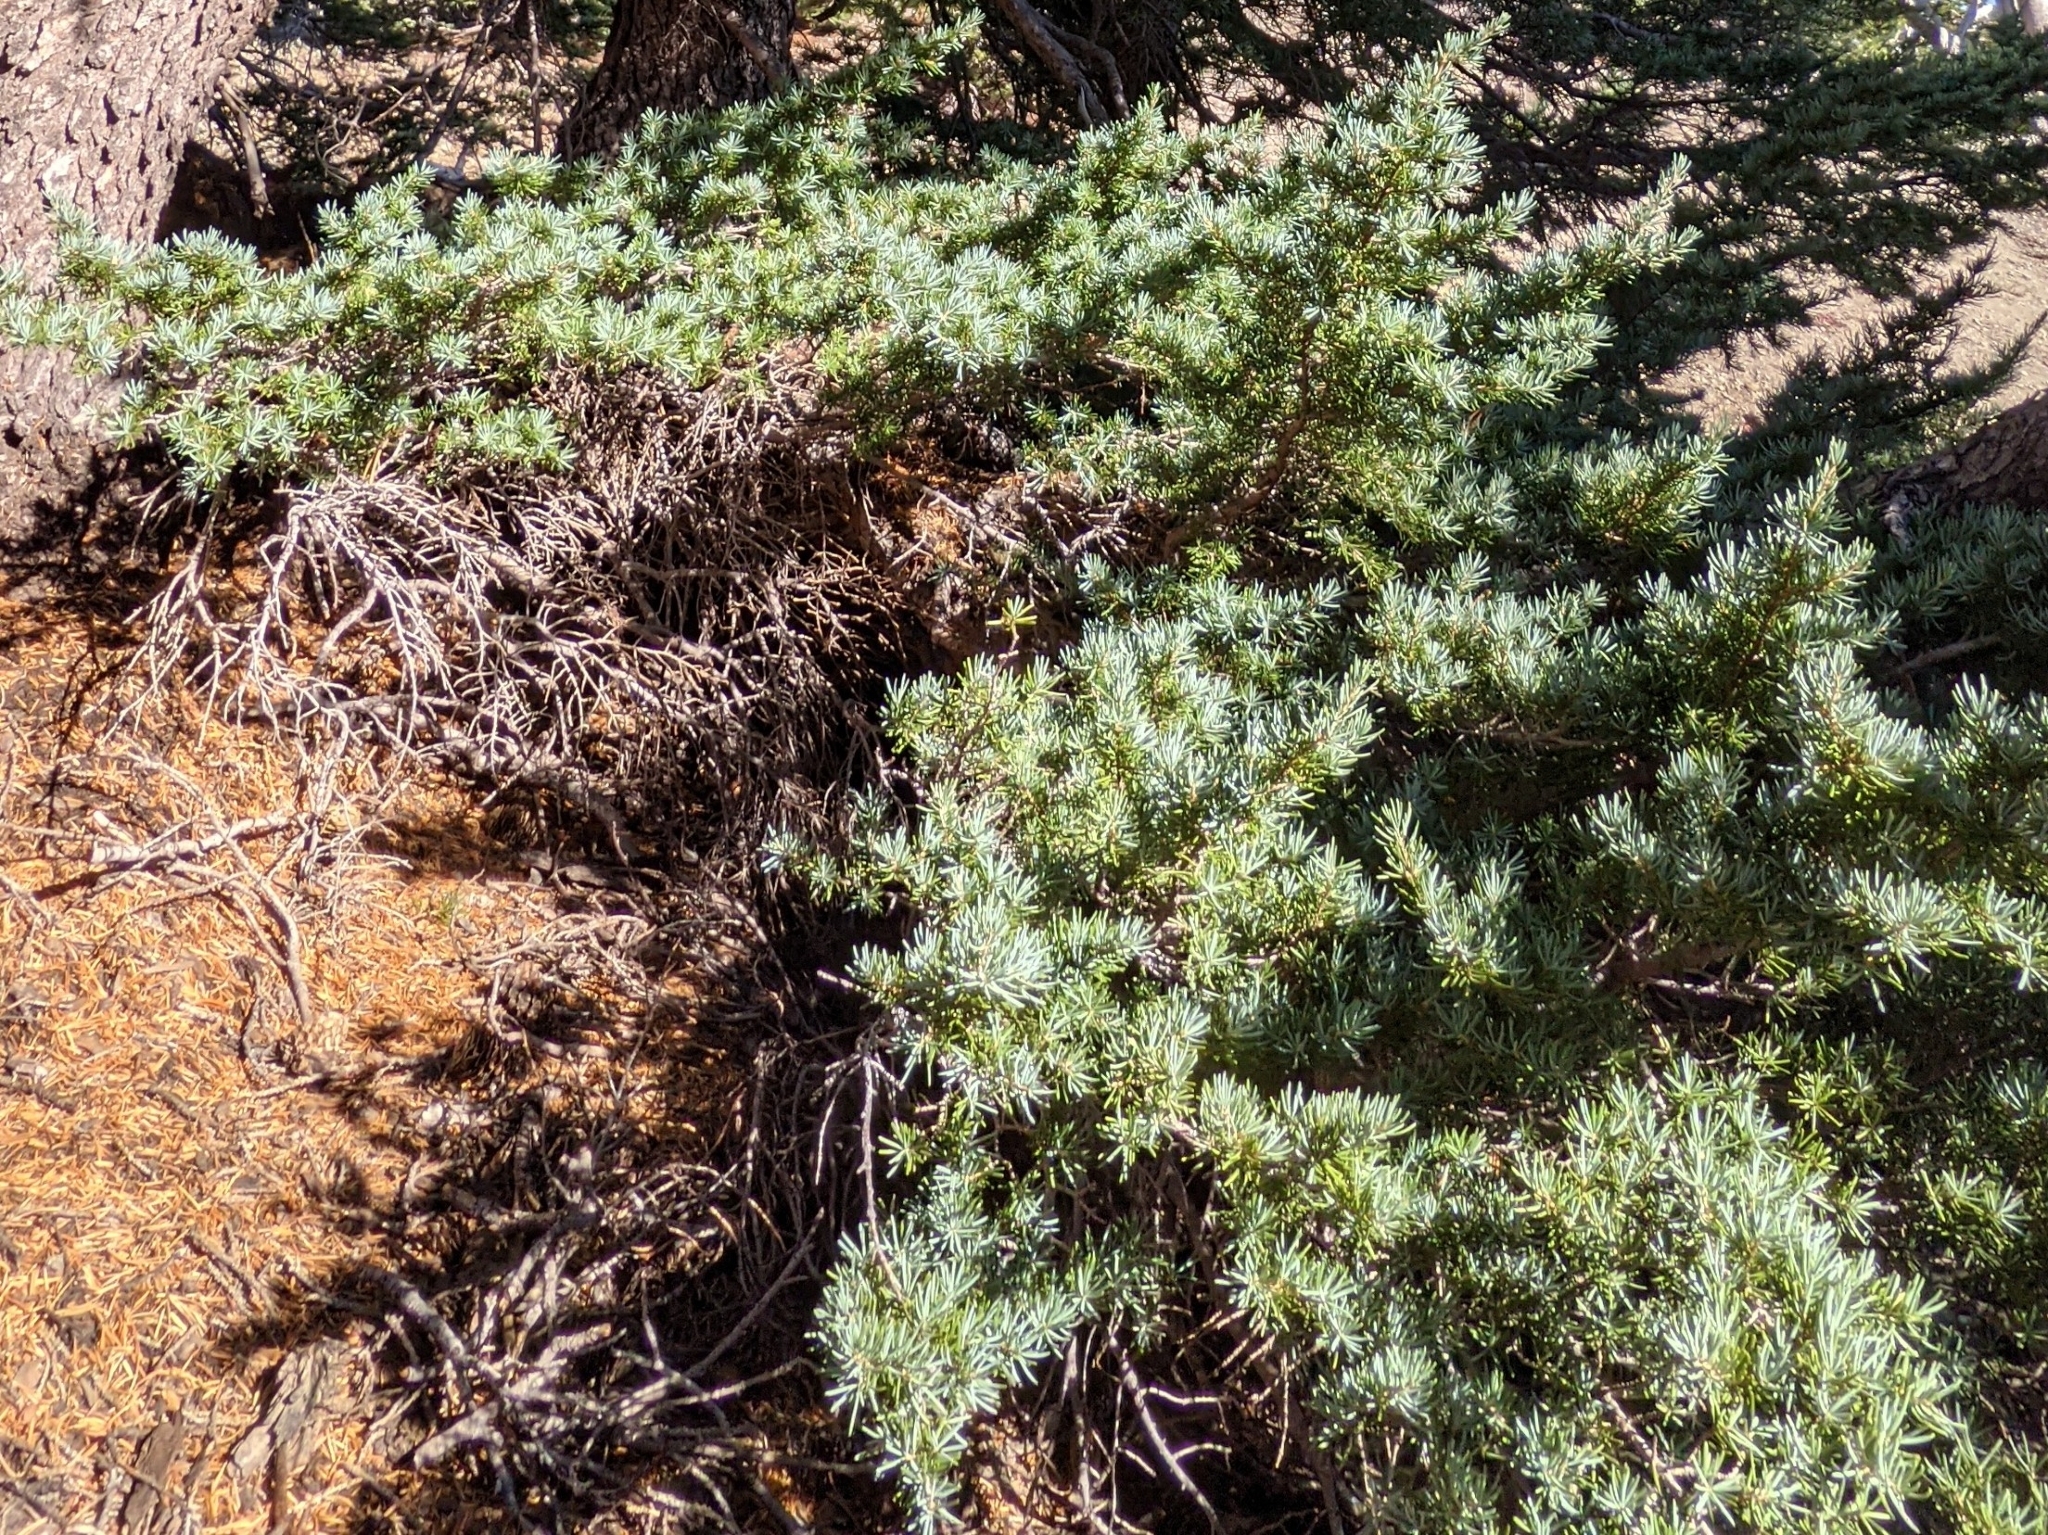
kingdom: Plantae
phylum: Tracheophyta
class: Pinopsida
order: Pinales
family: Pinaceae
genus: Tsuga
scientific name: Tsuga mertensiana
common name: Mountain hemlock
